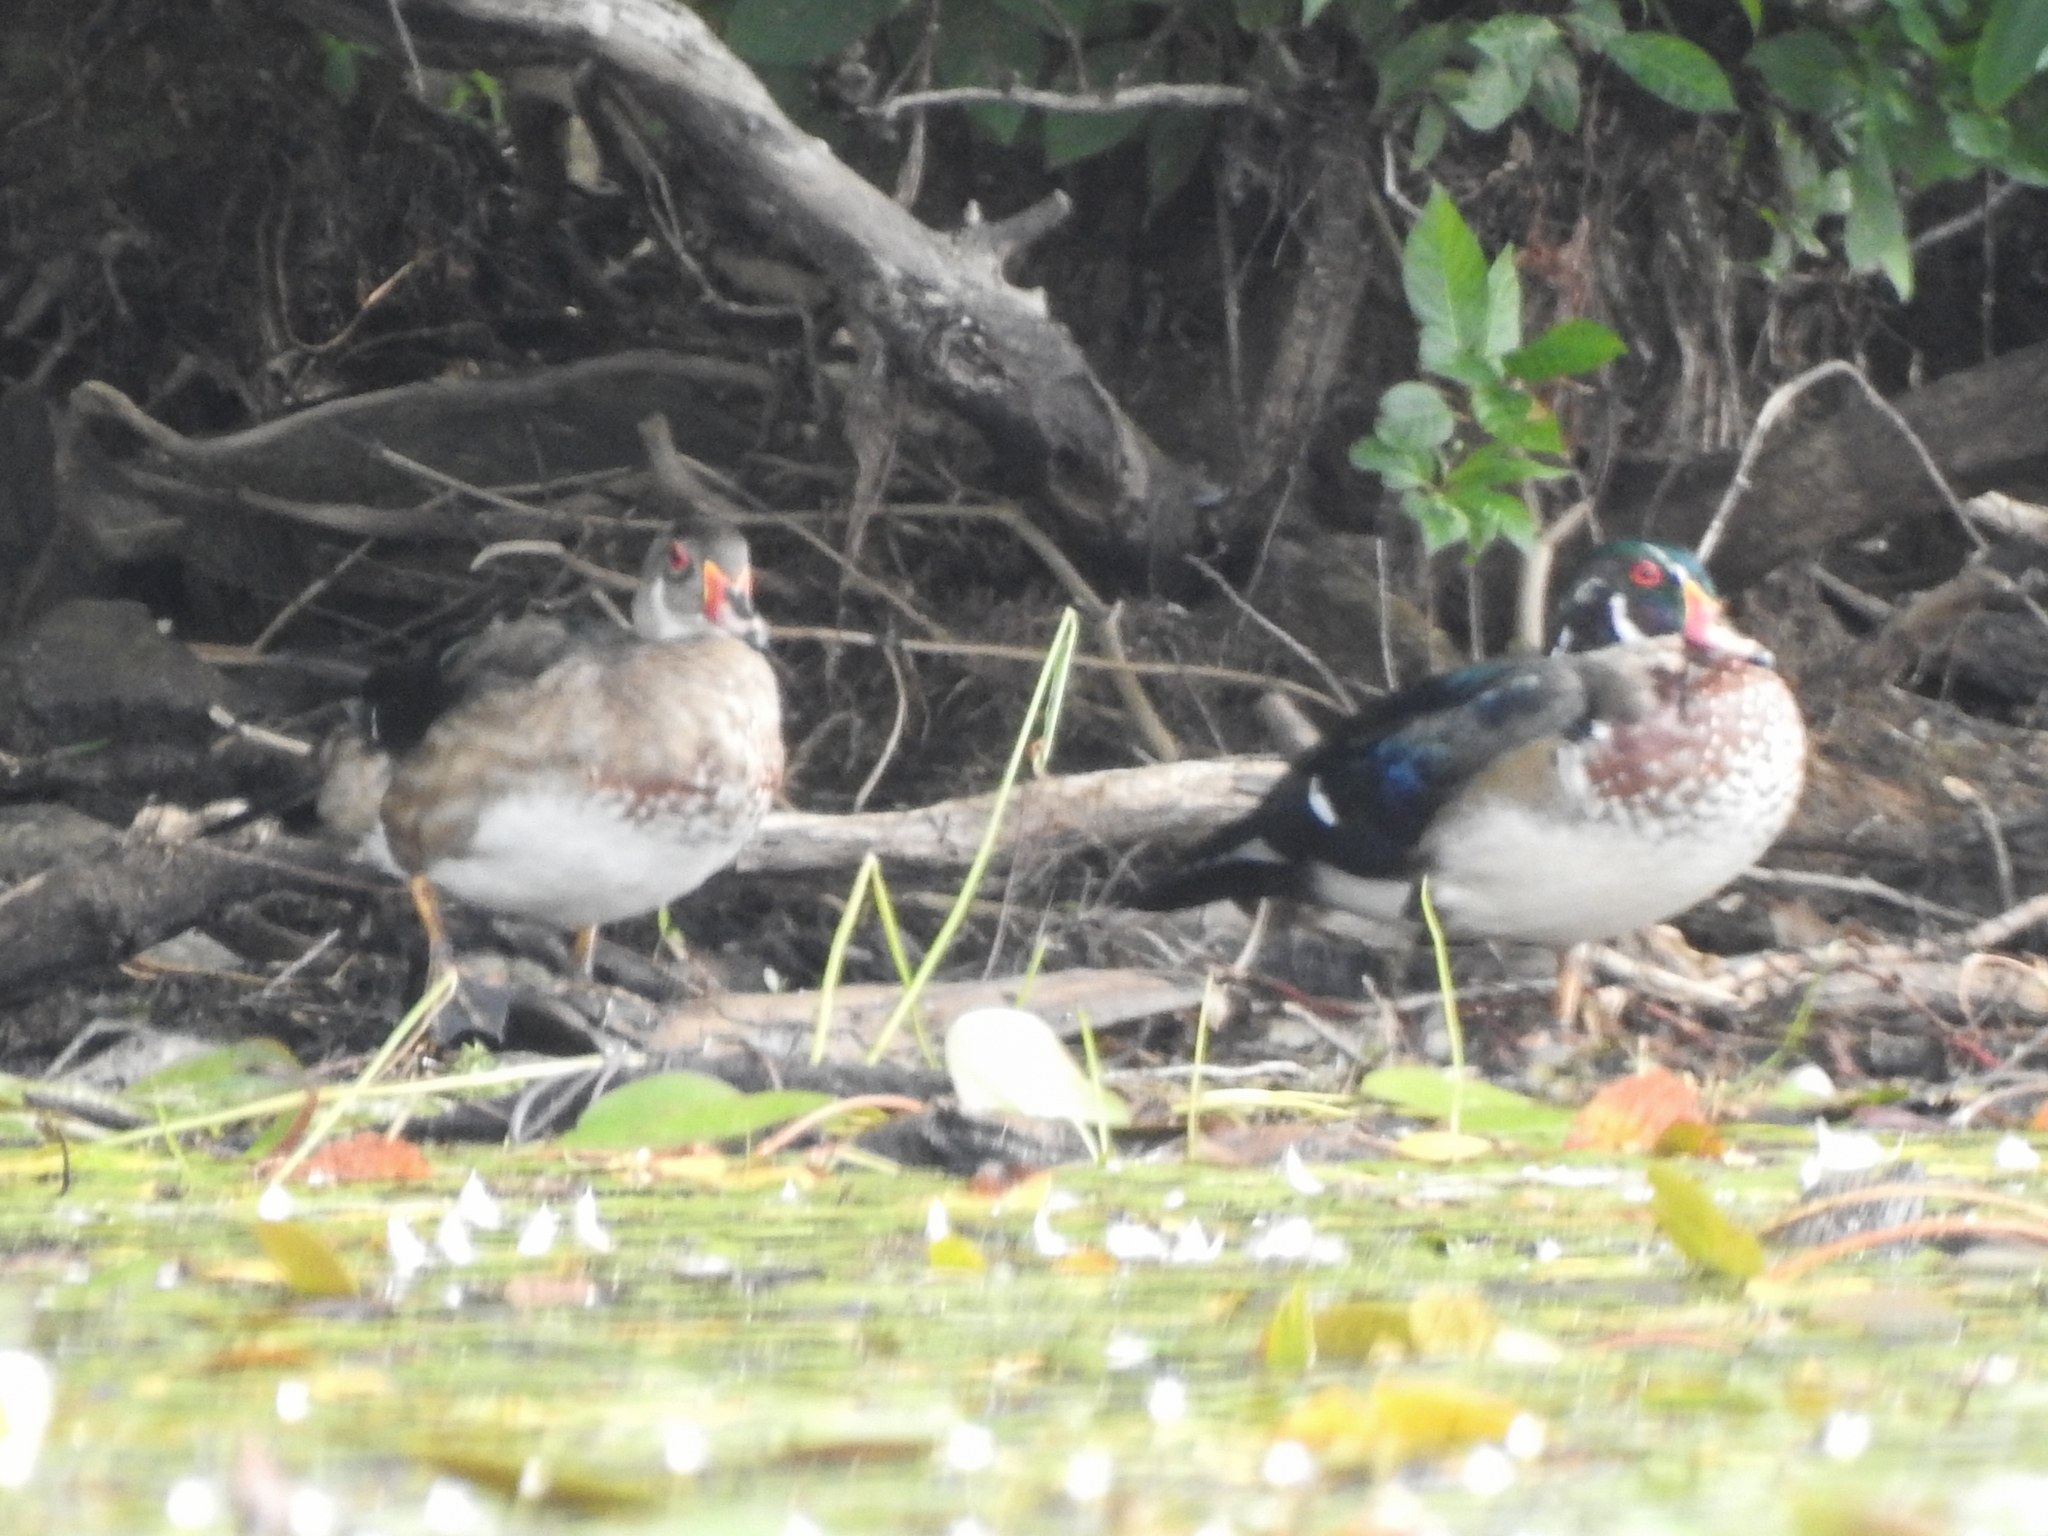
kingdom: Animalia
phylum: Chordata
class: Aves
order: Anseriformes
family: Anatidae
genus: Aix
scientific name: Aix sponsa
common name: Wood duck
